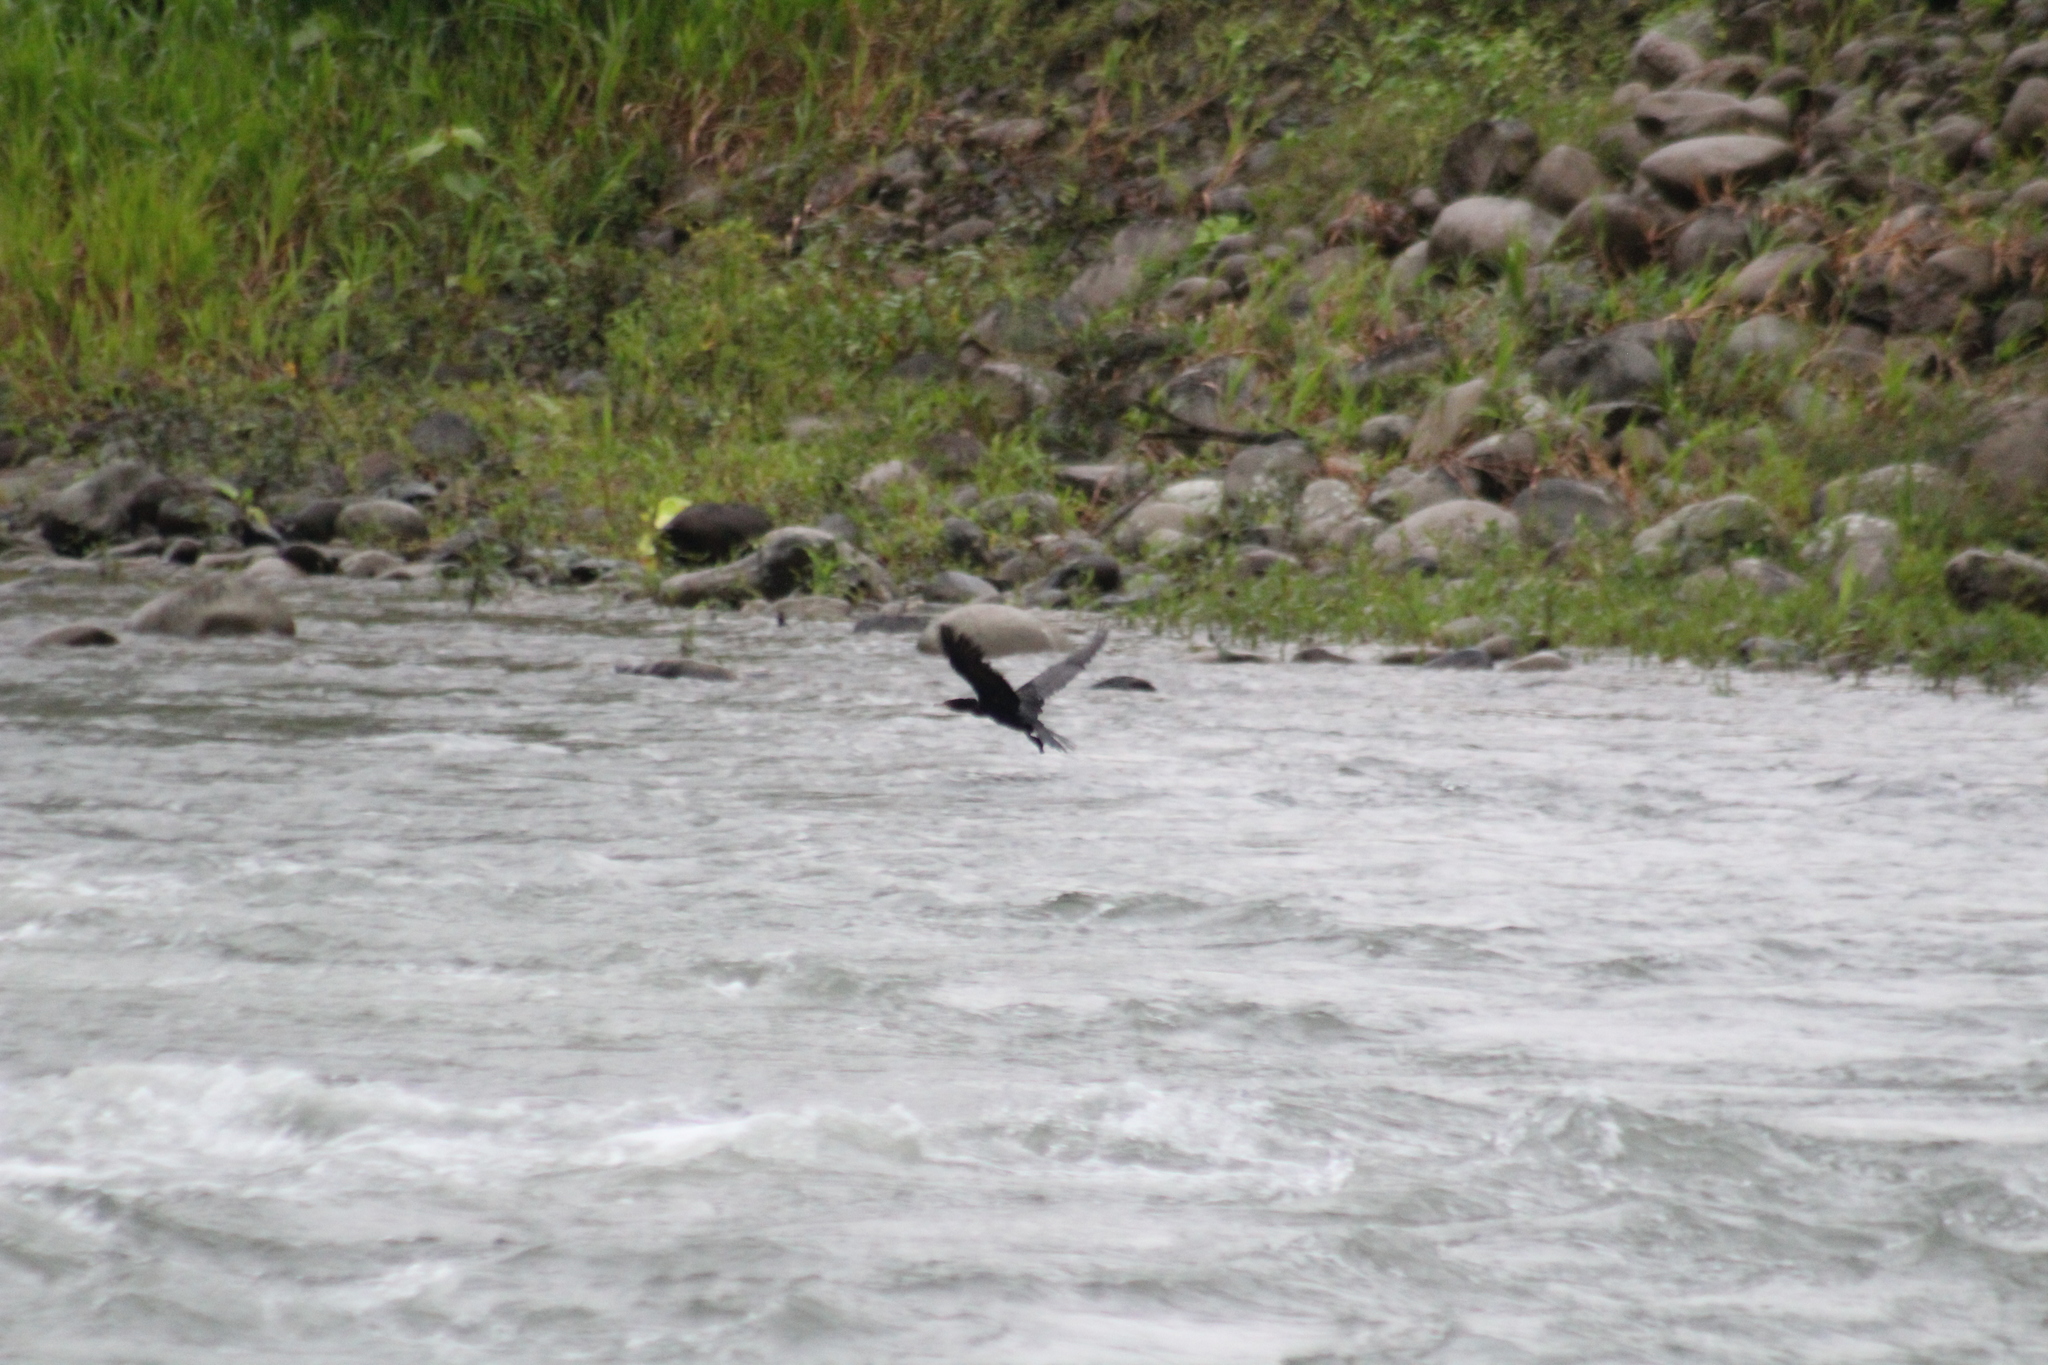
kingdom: Animalia
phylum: Chordata
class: Aves
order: Suliformes
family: Phalacrocoracidae
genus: Phalacrocorax
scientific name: Phalacrocorax brasilianus
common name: Neotropic cormorant
